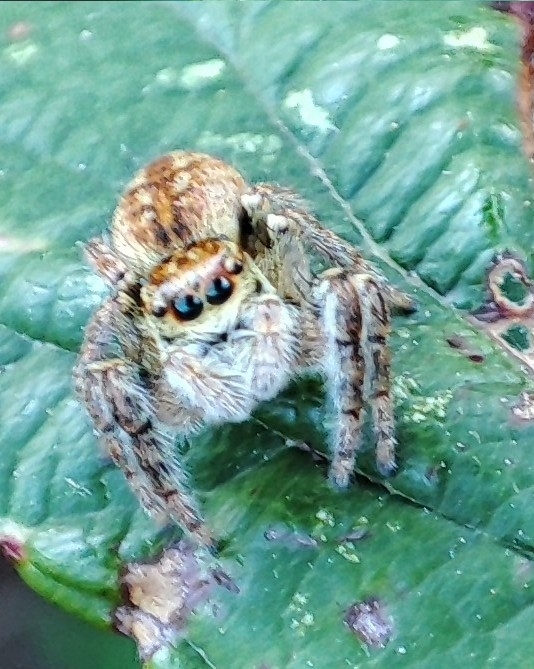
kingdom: Animalia
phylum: Arthropoda
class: Arachnida
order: Araneae
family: Salticidae
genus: Carrhotus
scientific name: Carrhotus xanthogramma
